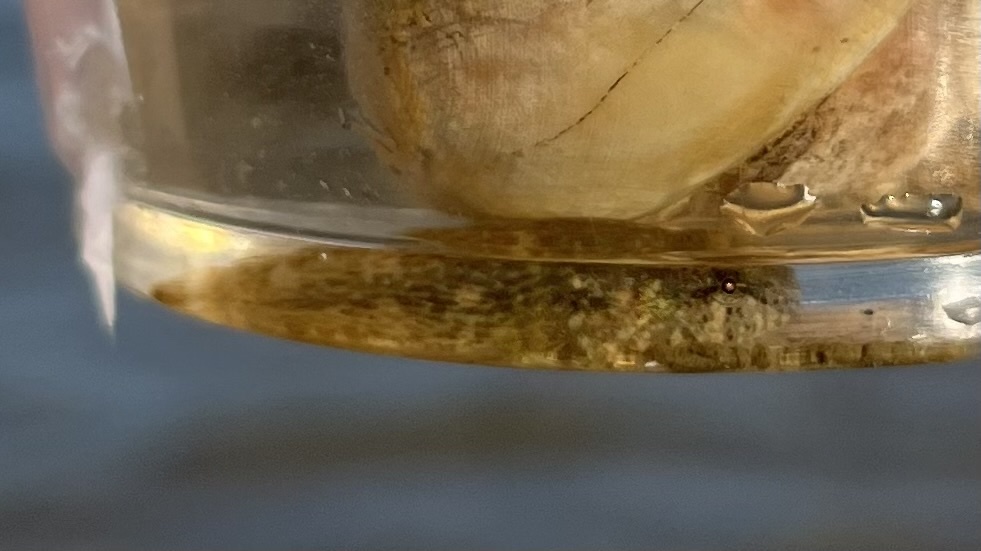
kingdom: Animalia
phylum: Chordata
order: Gobiesociformes
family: Gobiesocidae
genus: Gobiesox
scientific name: Gobiesox strumosus
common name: Skilletfish
